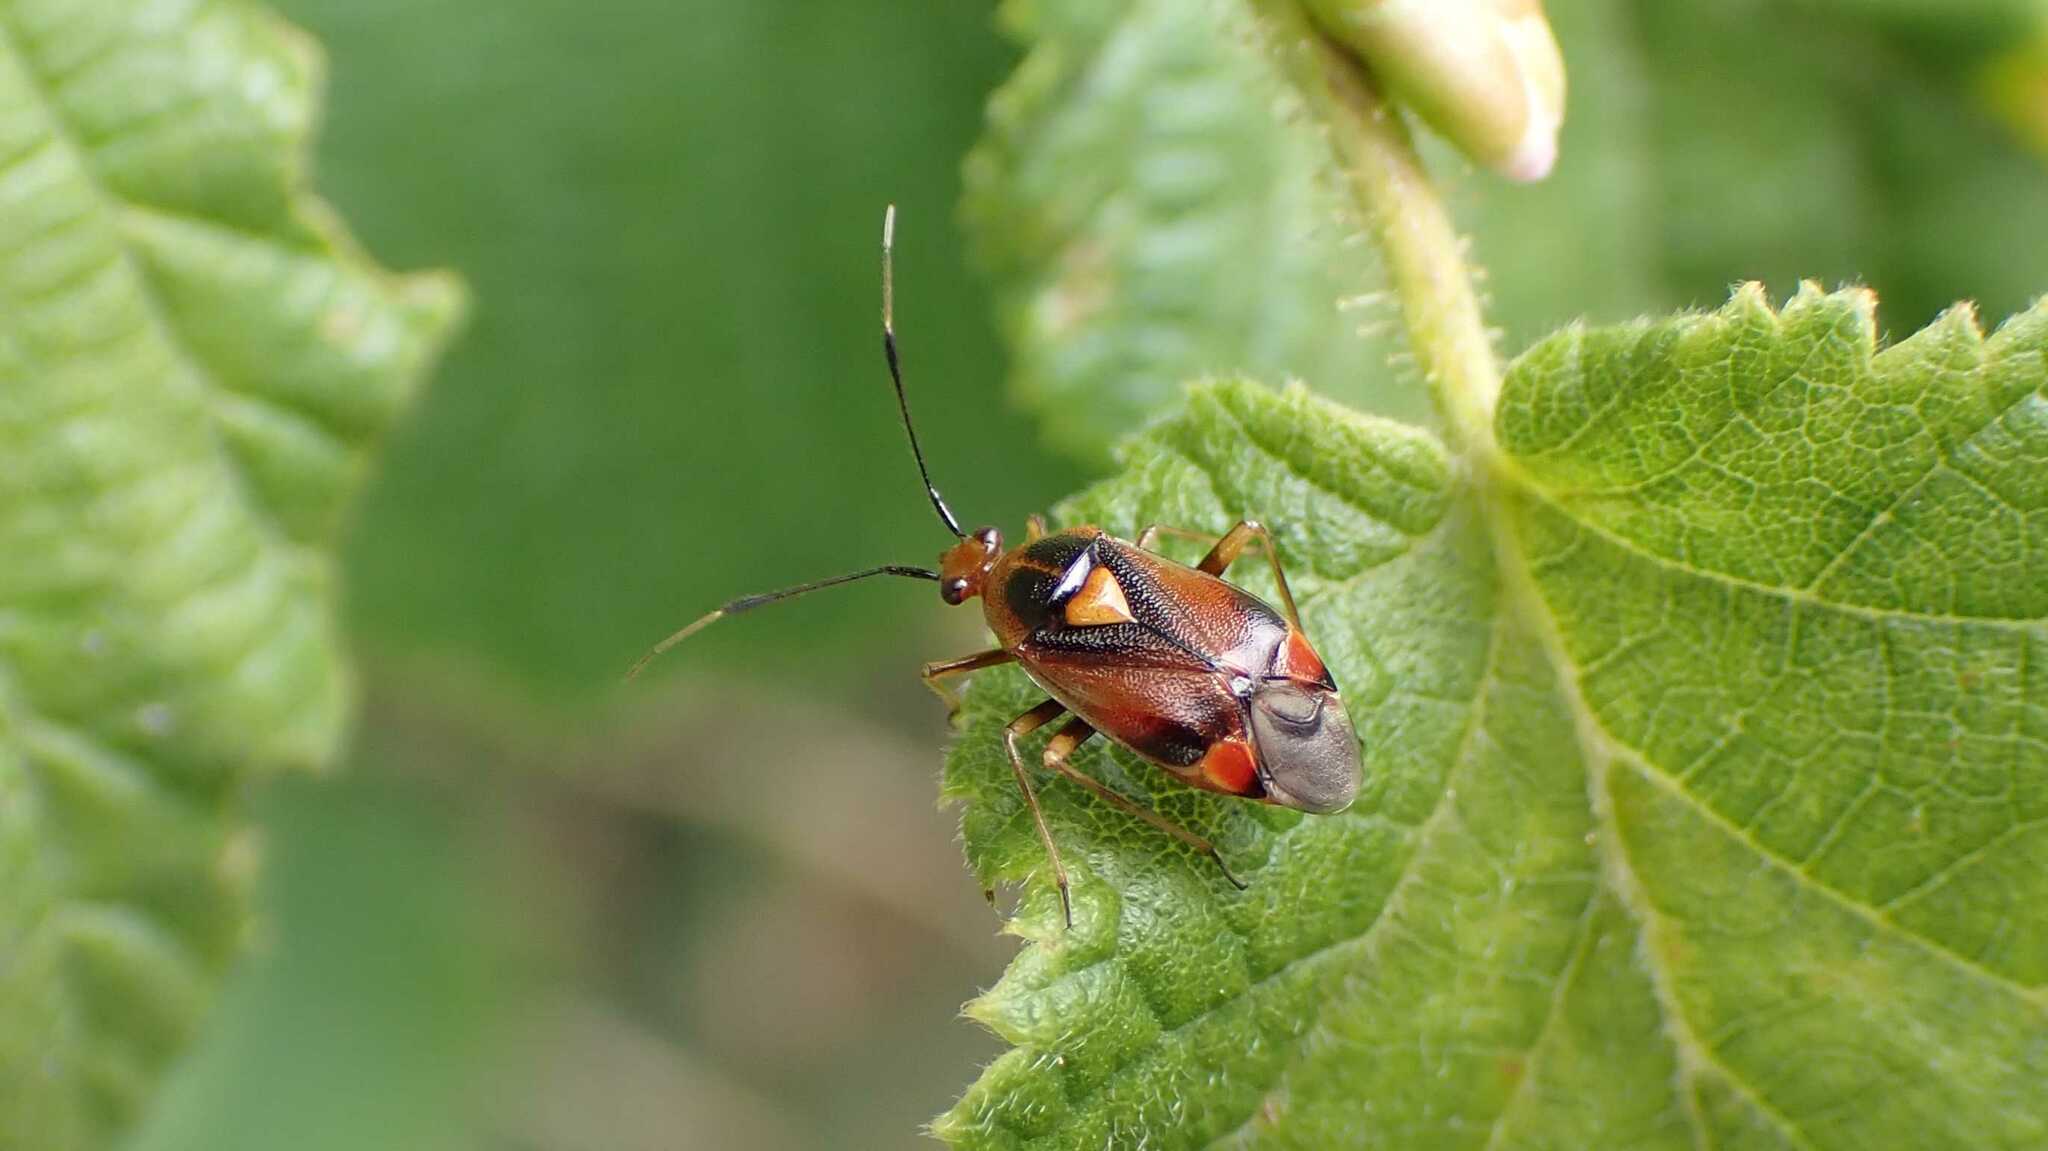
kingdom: Animalia
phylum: Arthropoda
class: Insecta
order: Hemiptera
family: Miridae
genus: Deraeocoris
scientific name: Deraeocoris ruber
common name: Plant bug
